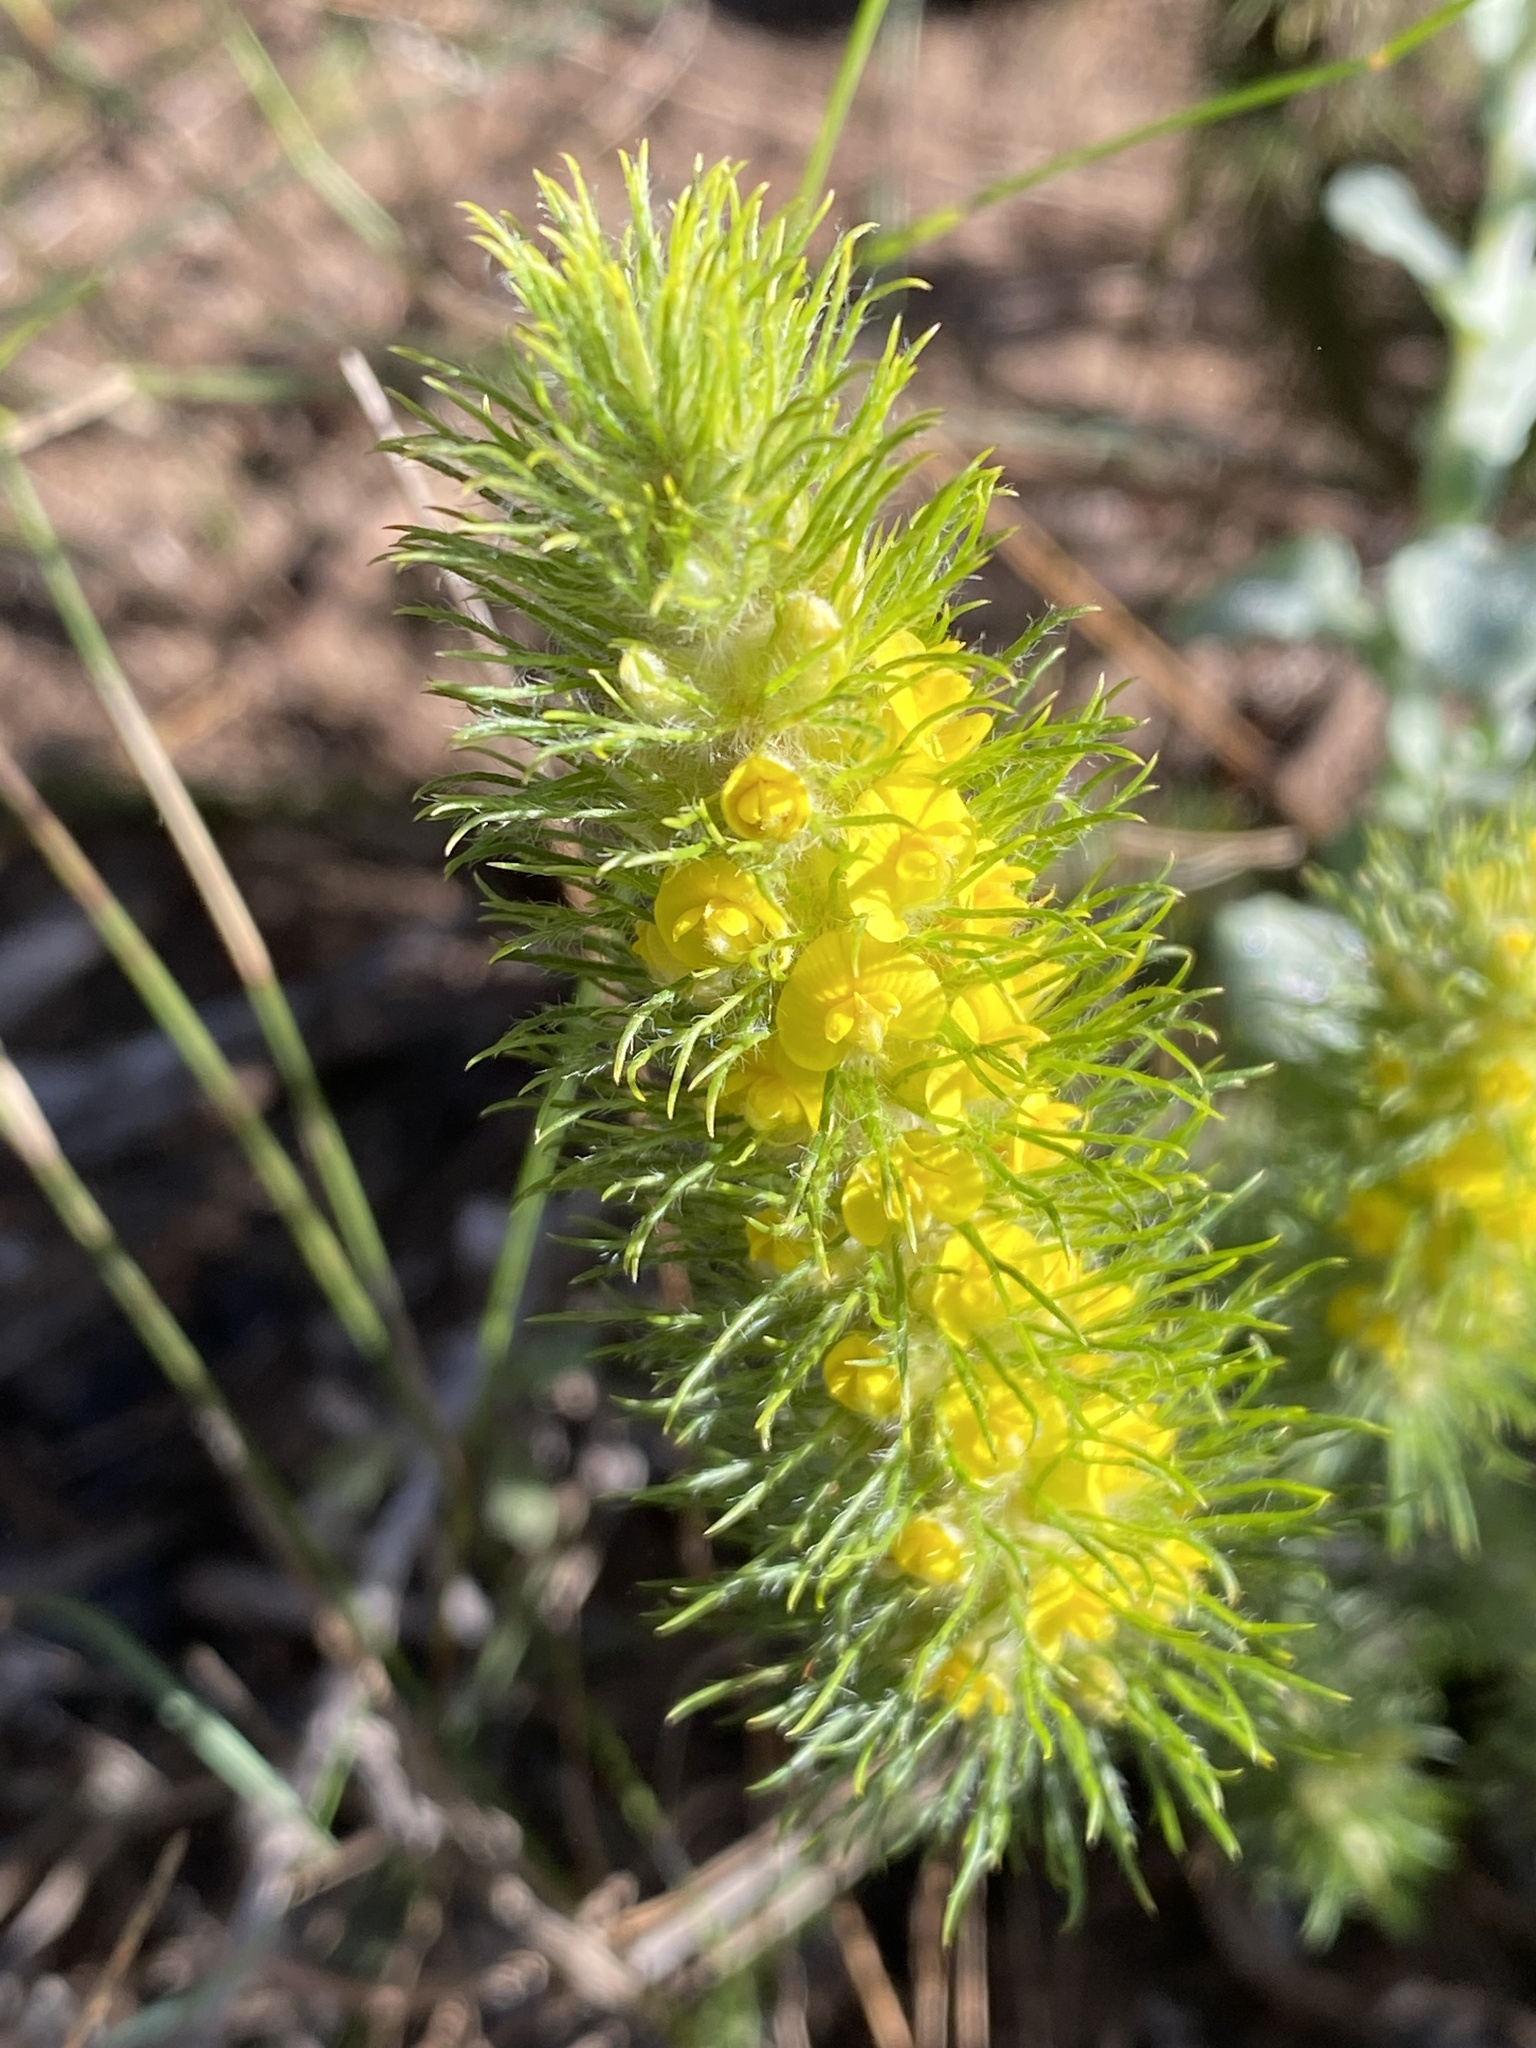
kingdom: Plantae
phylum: Tracheophyta
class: Magnoliopsida
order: Fabales
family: Fabaceae
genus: Aspalathus
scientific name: Aspalathus alopecurus
